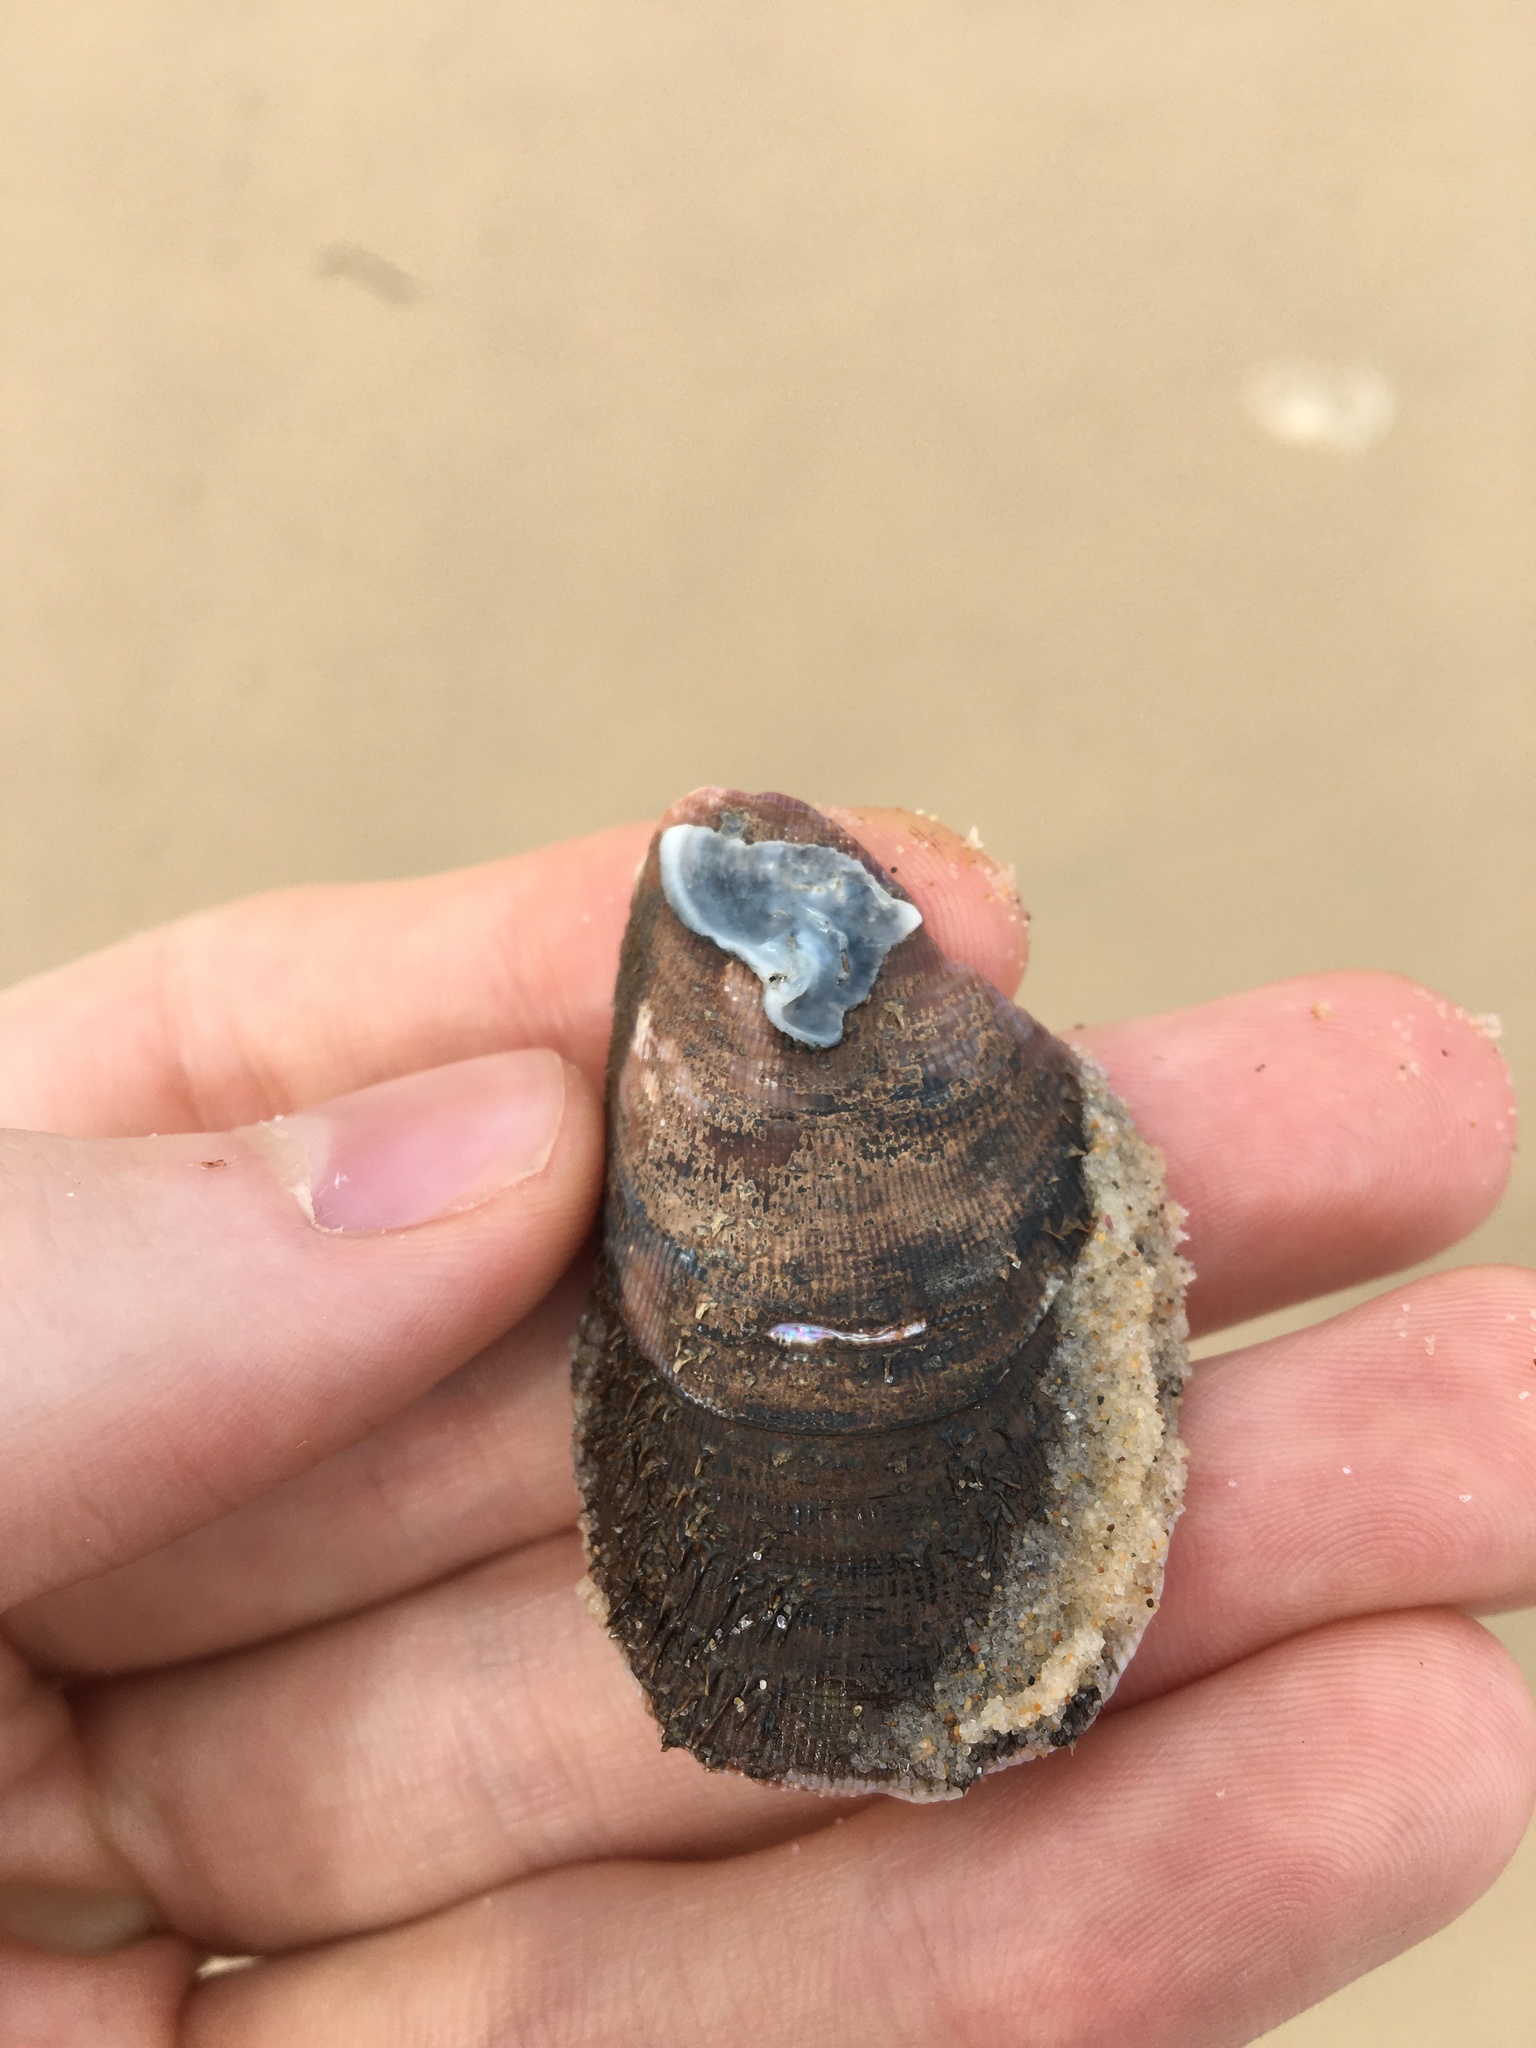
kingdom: Animalia
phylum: Mollusca
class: Bivalvia
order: Mytilida
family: Mytilidae
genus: Trichomya
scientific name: Trichomya hirsuta
